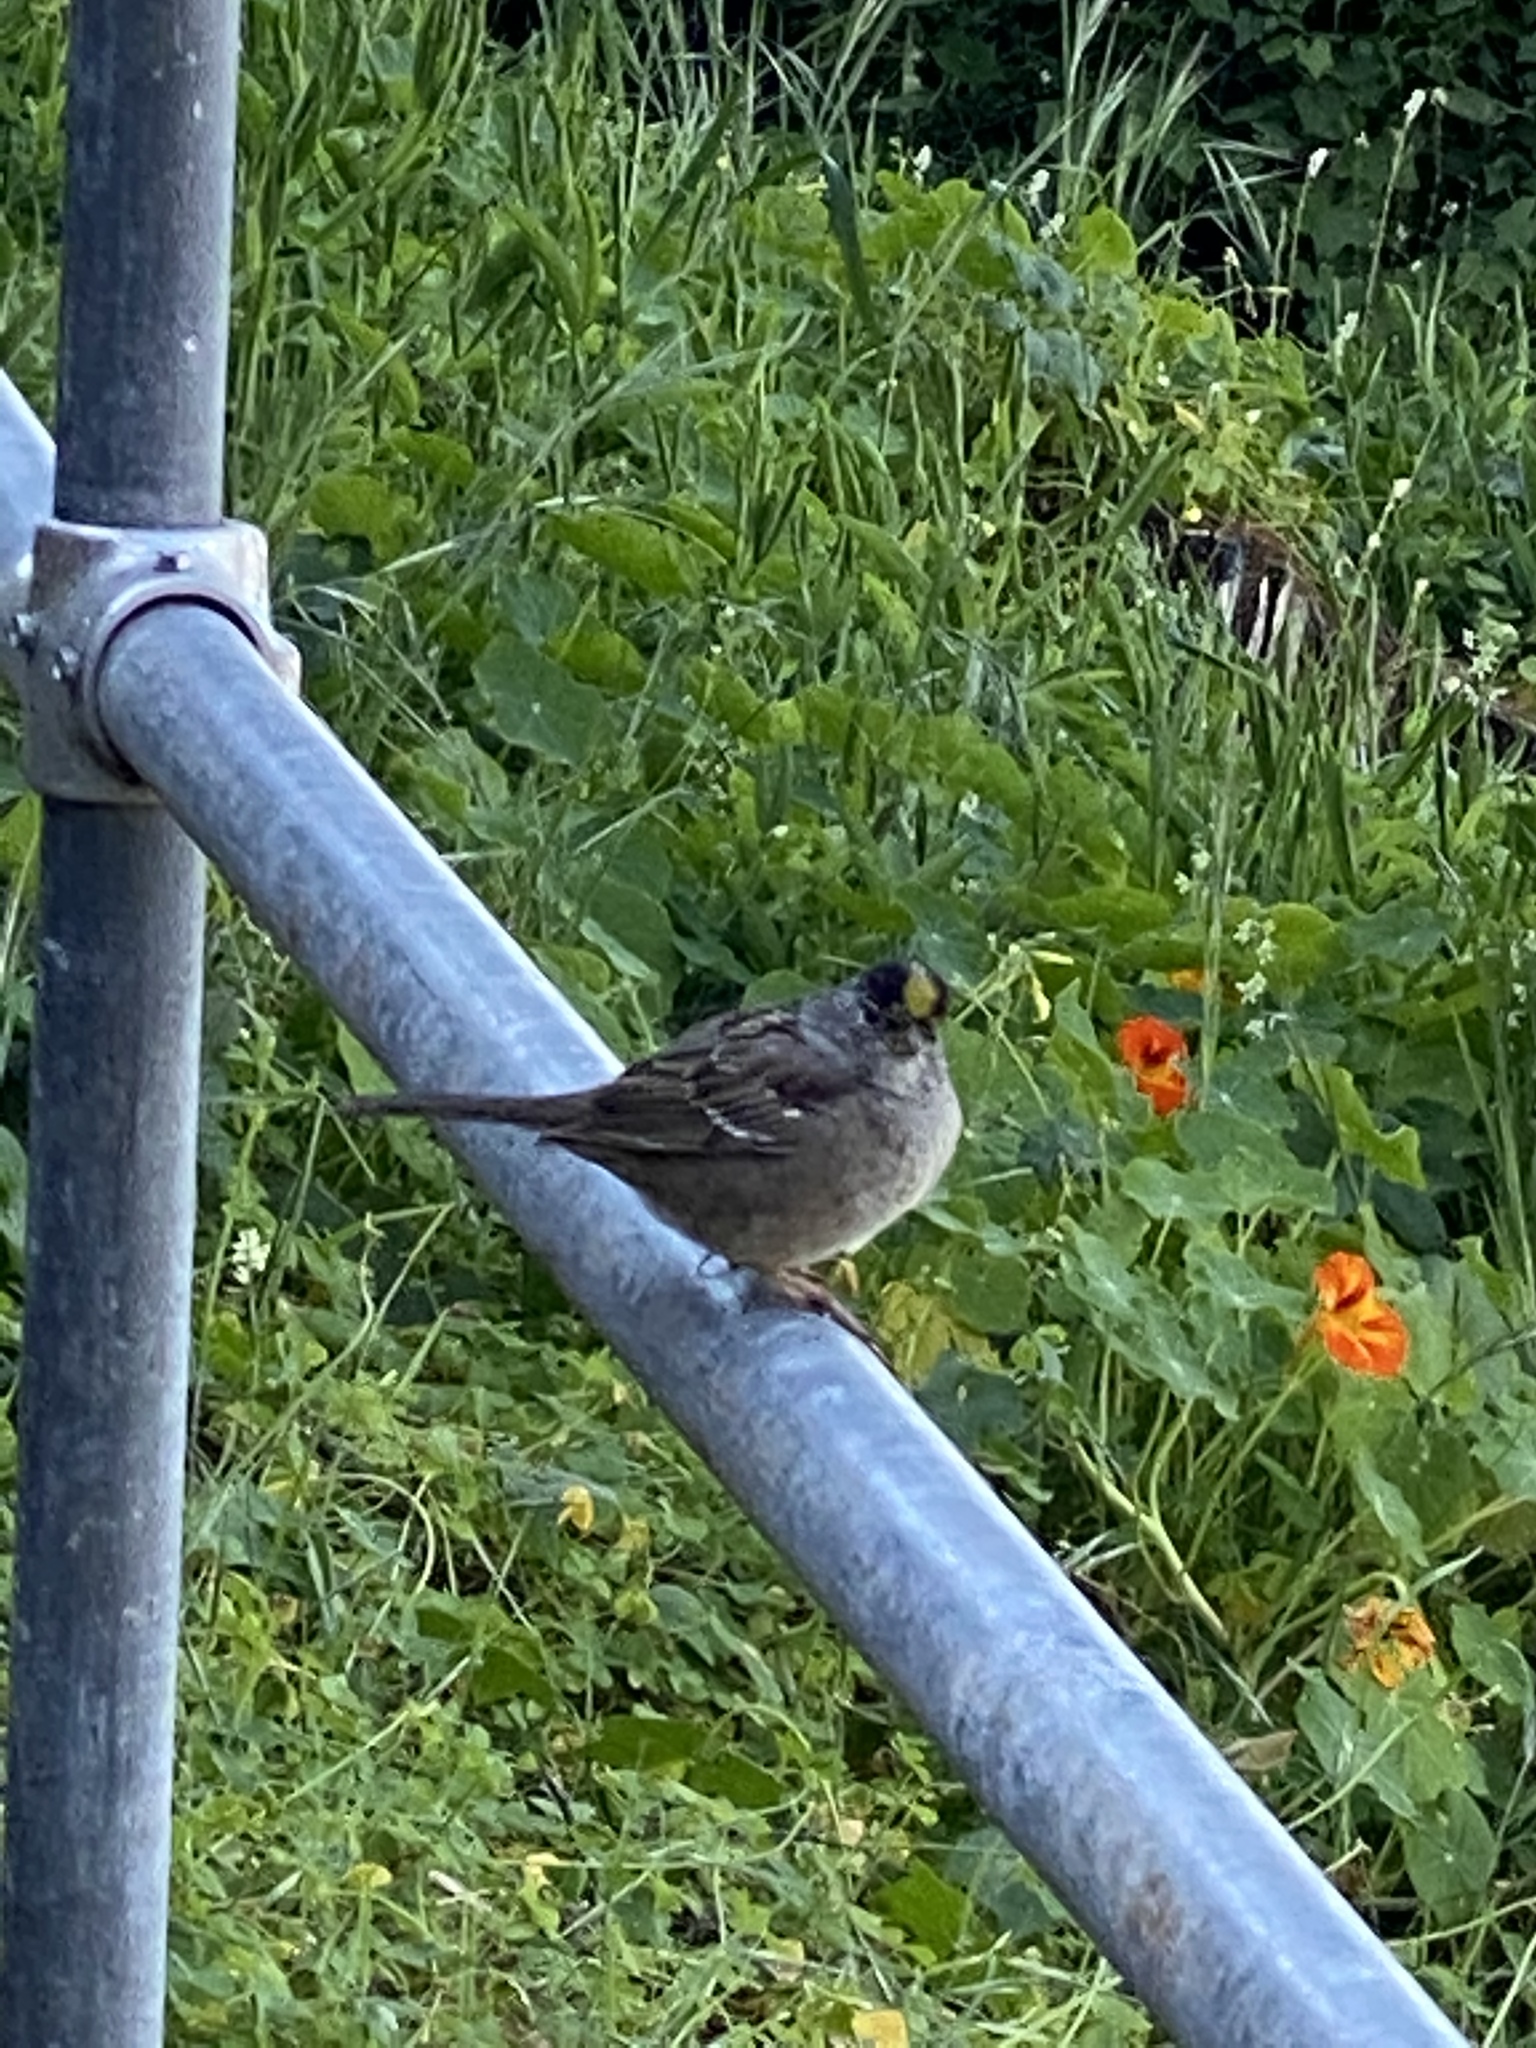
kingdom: Animalia
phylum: Chordata
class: Aves
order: Passeriformes
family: Passerellidae
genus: Zonotrichia
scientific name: Zonotrichia atricapilla
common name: Golden-crowned sparrow
